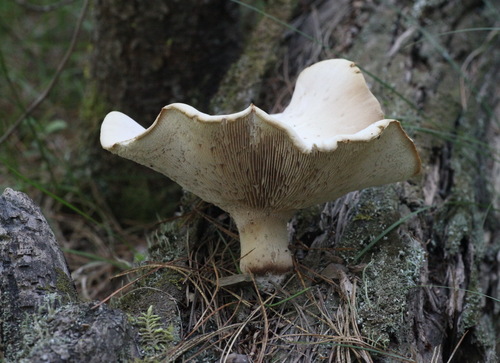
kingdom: Fungi
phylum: Basidiomycota
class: Agaricomycetes
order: Gloeophyllales
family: Gloeophyllaceae
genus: Neolentinus
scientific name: Neolentinus cyathiformis
